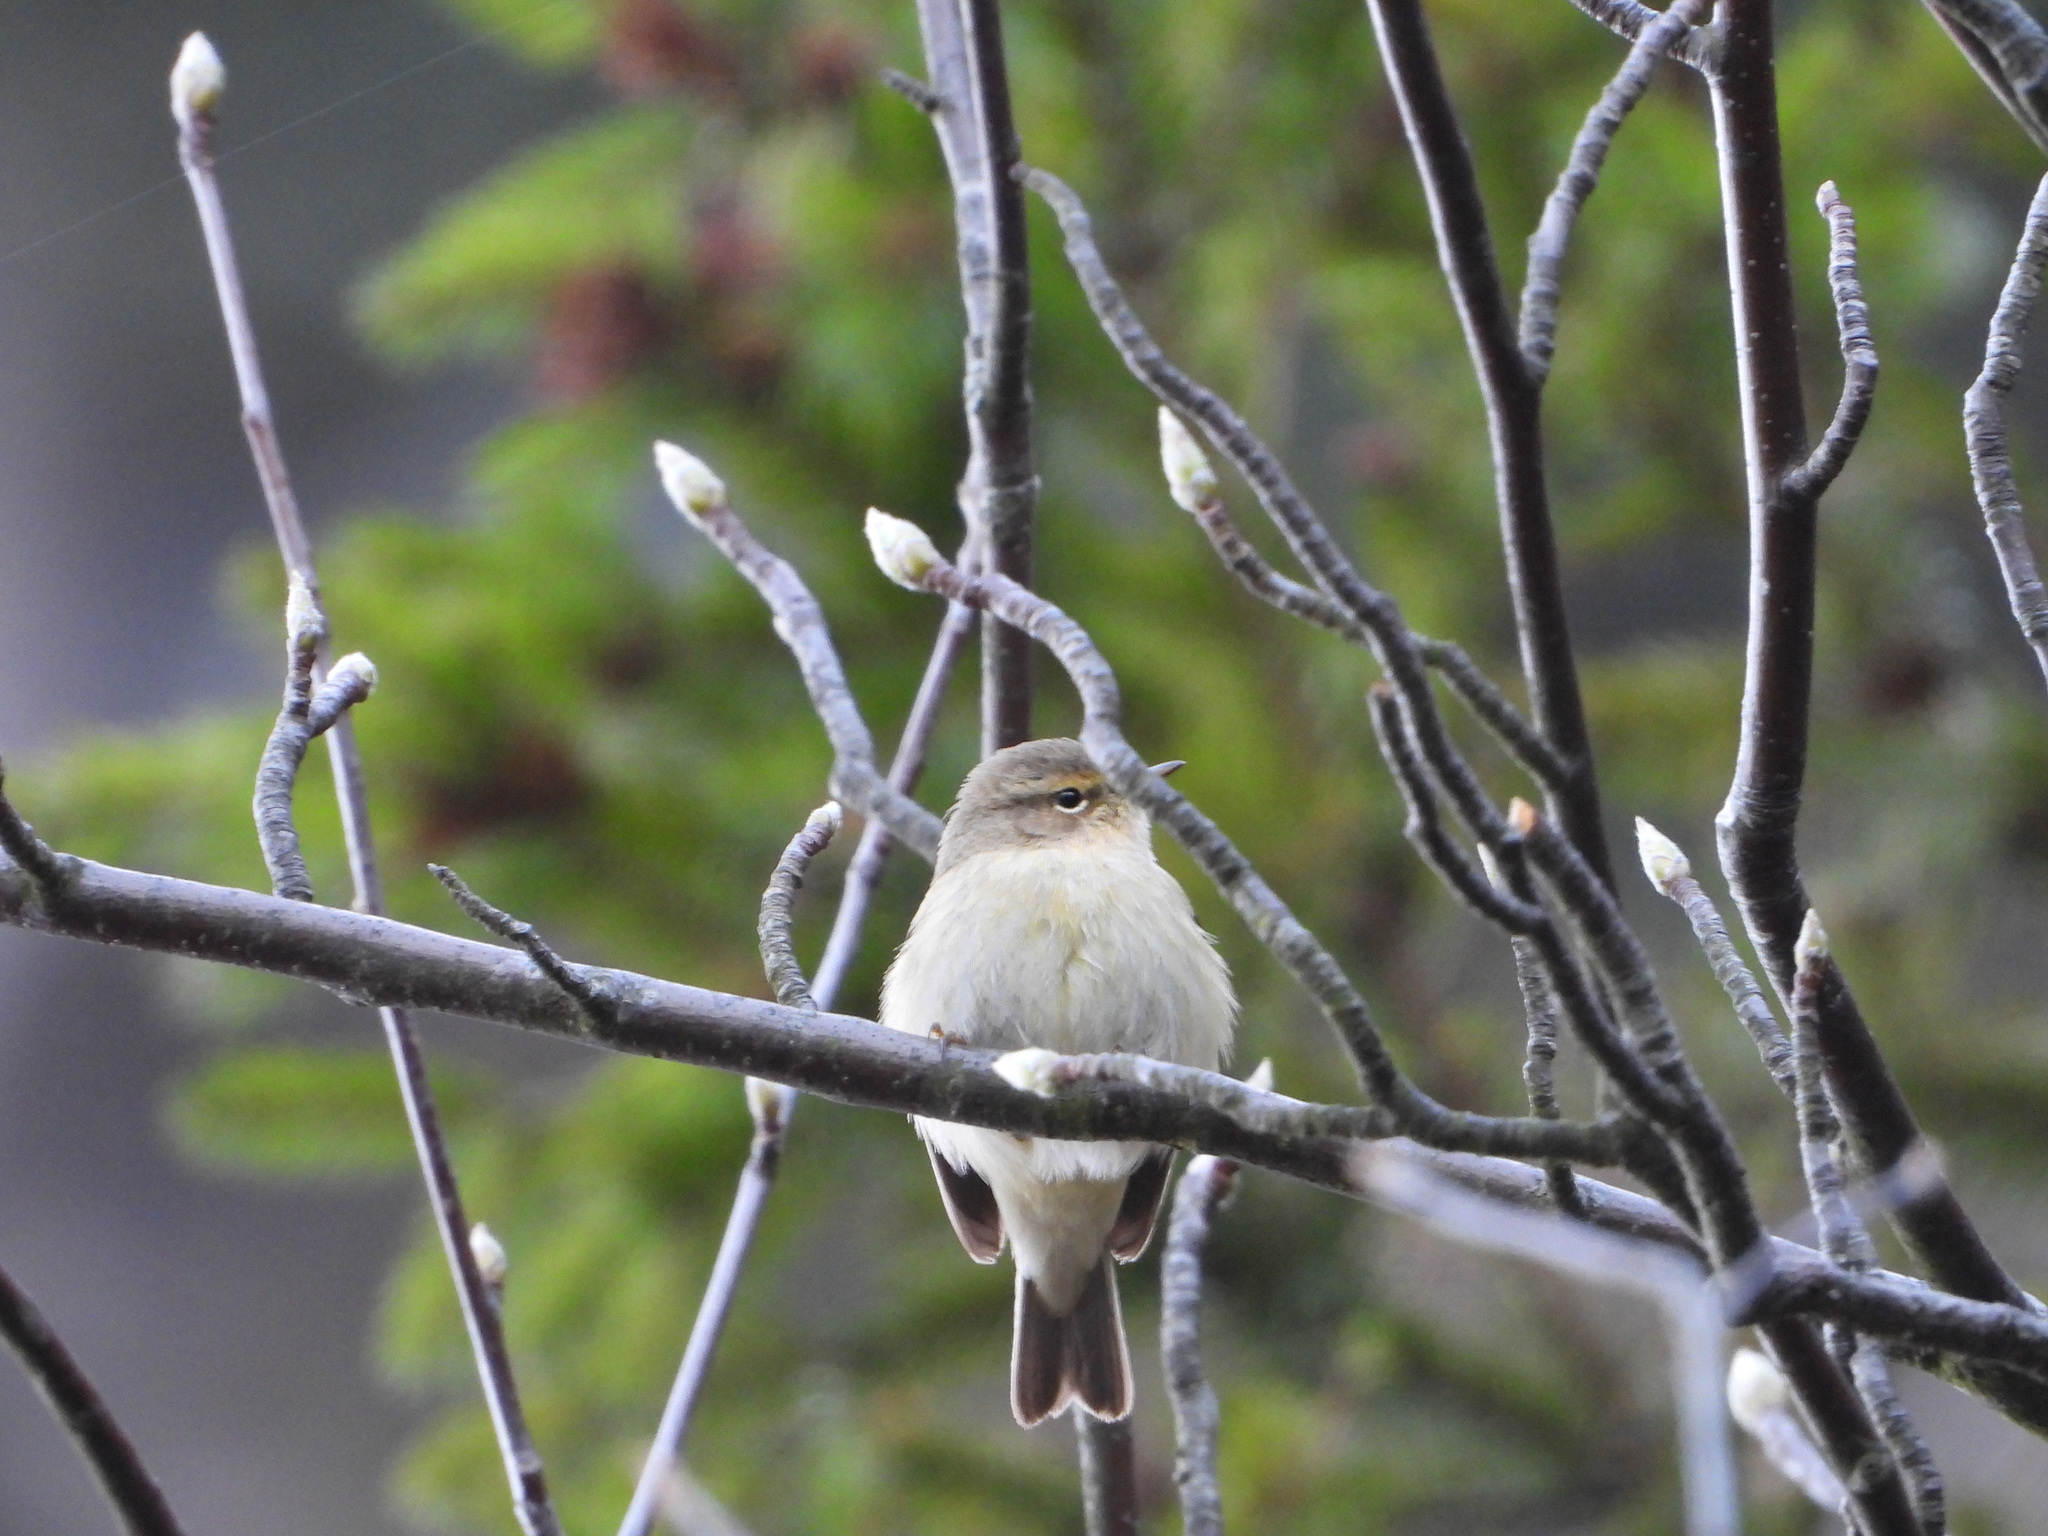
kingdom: Animalia
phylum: Chordata
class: Aves
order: Passeriformes
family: Phylloscopidae
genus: Phylloscopus
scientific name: Phylloscopus collybita
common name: Common chiffchaff
